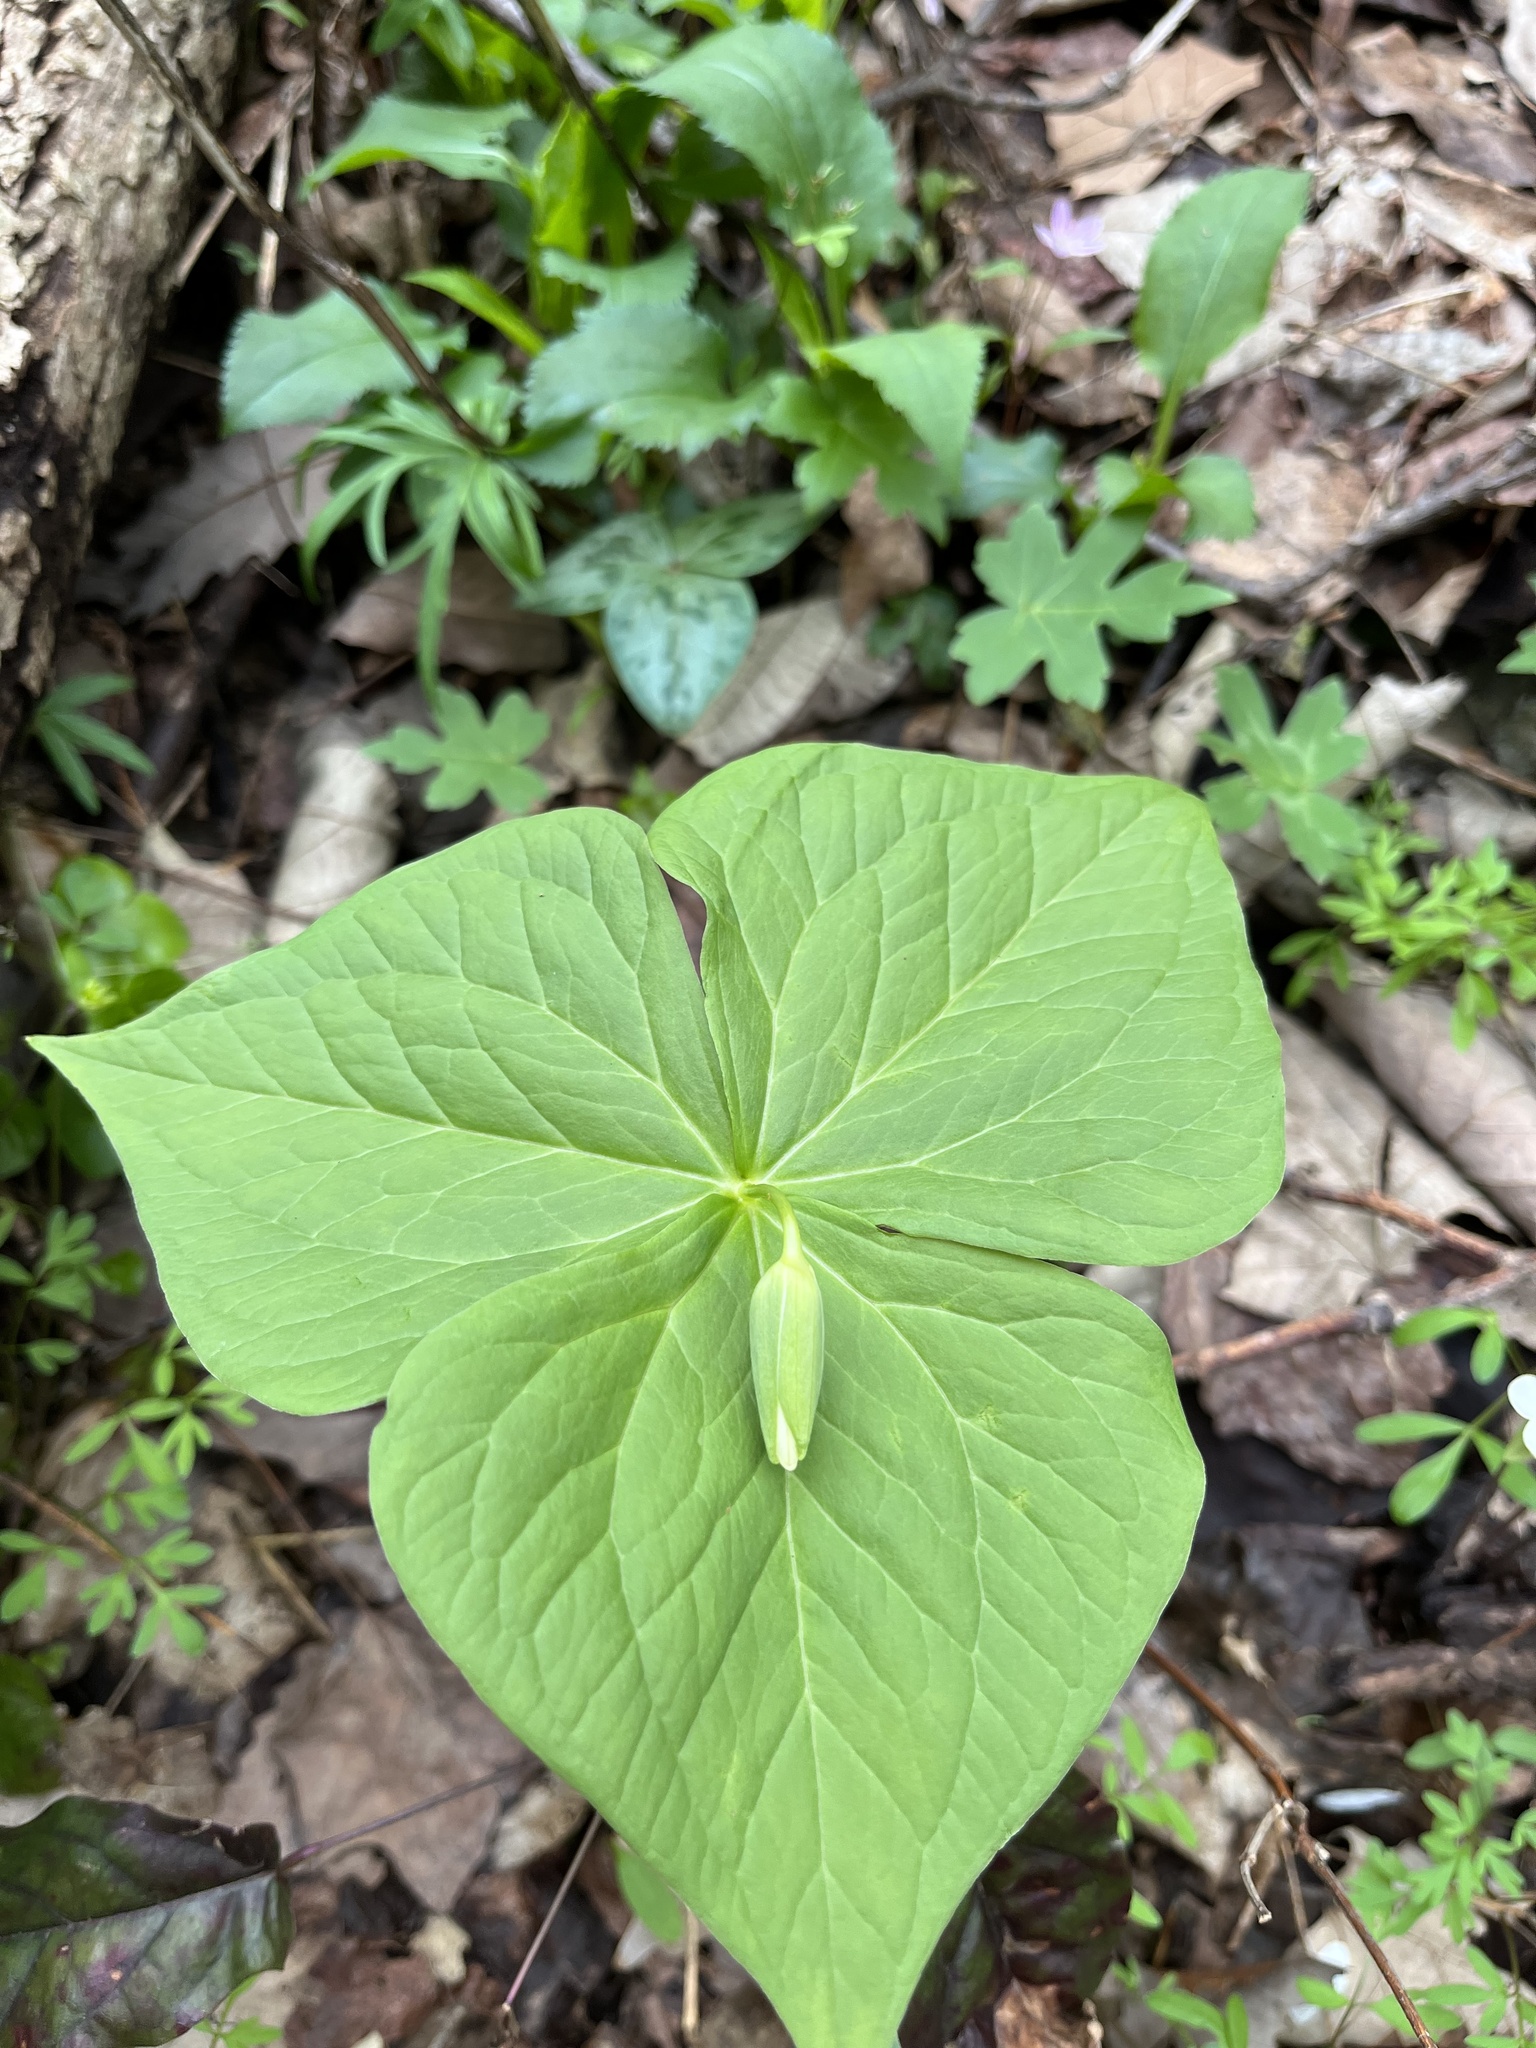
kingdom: Plantae
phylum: Tracheophyta
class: Liliopsida
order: Liliales
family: Melanthiaceae
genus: Trillium
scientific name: Trillium flexipes
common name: Drooping trillium
